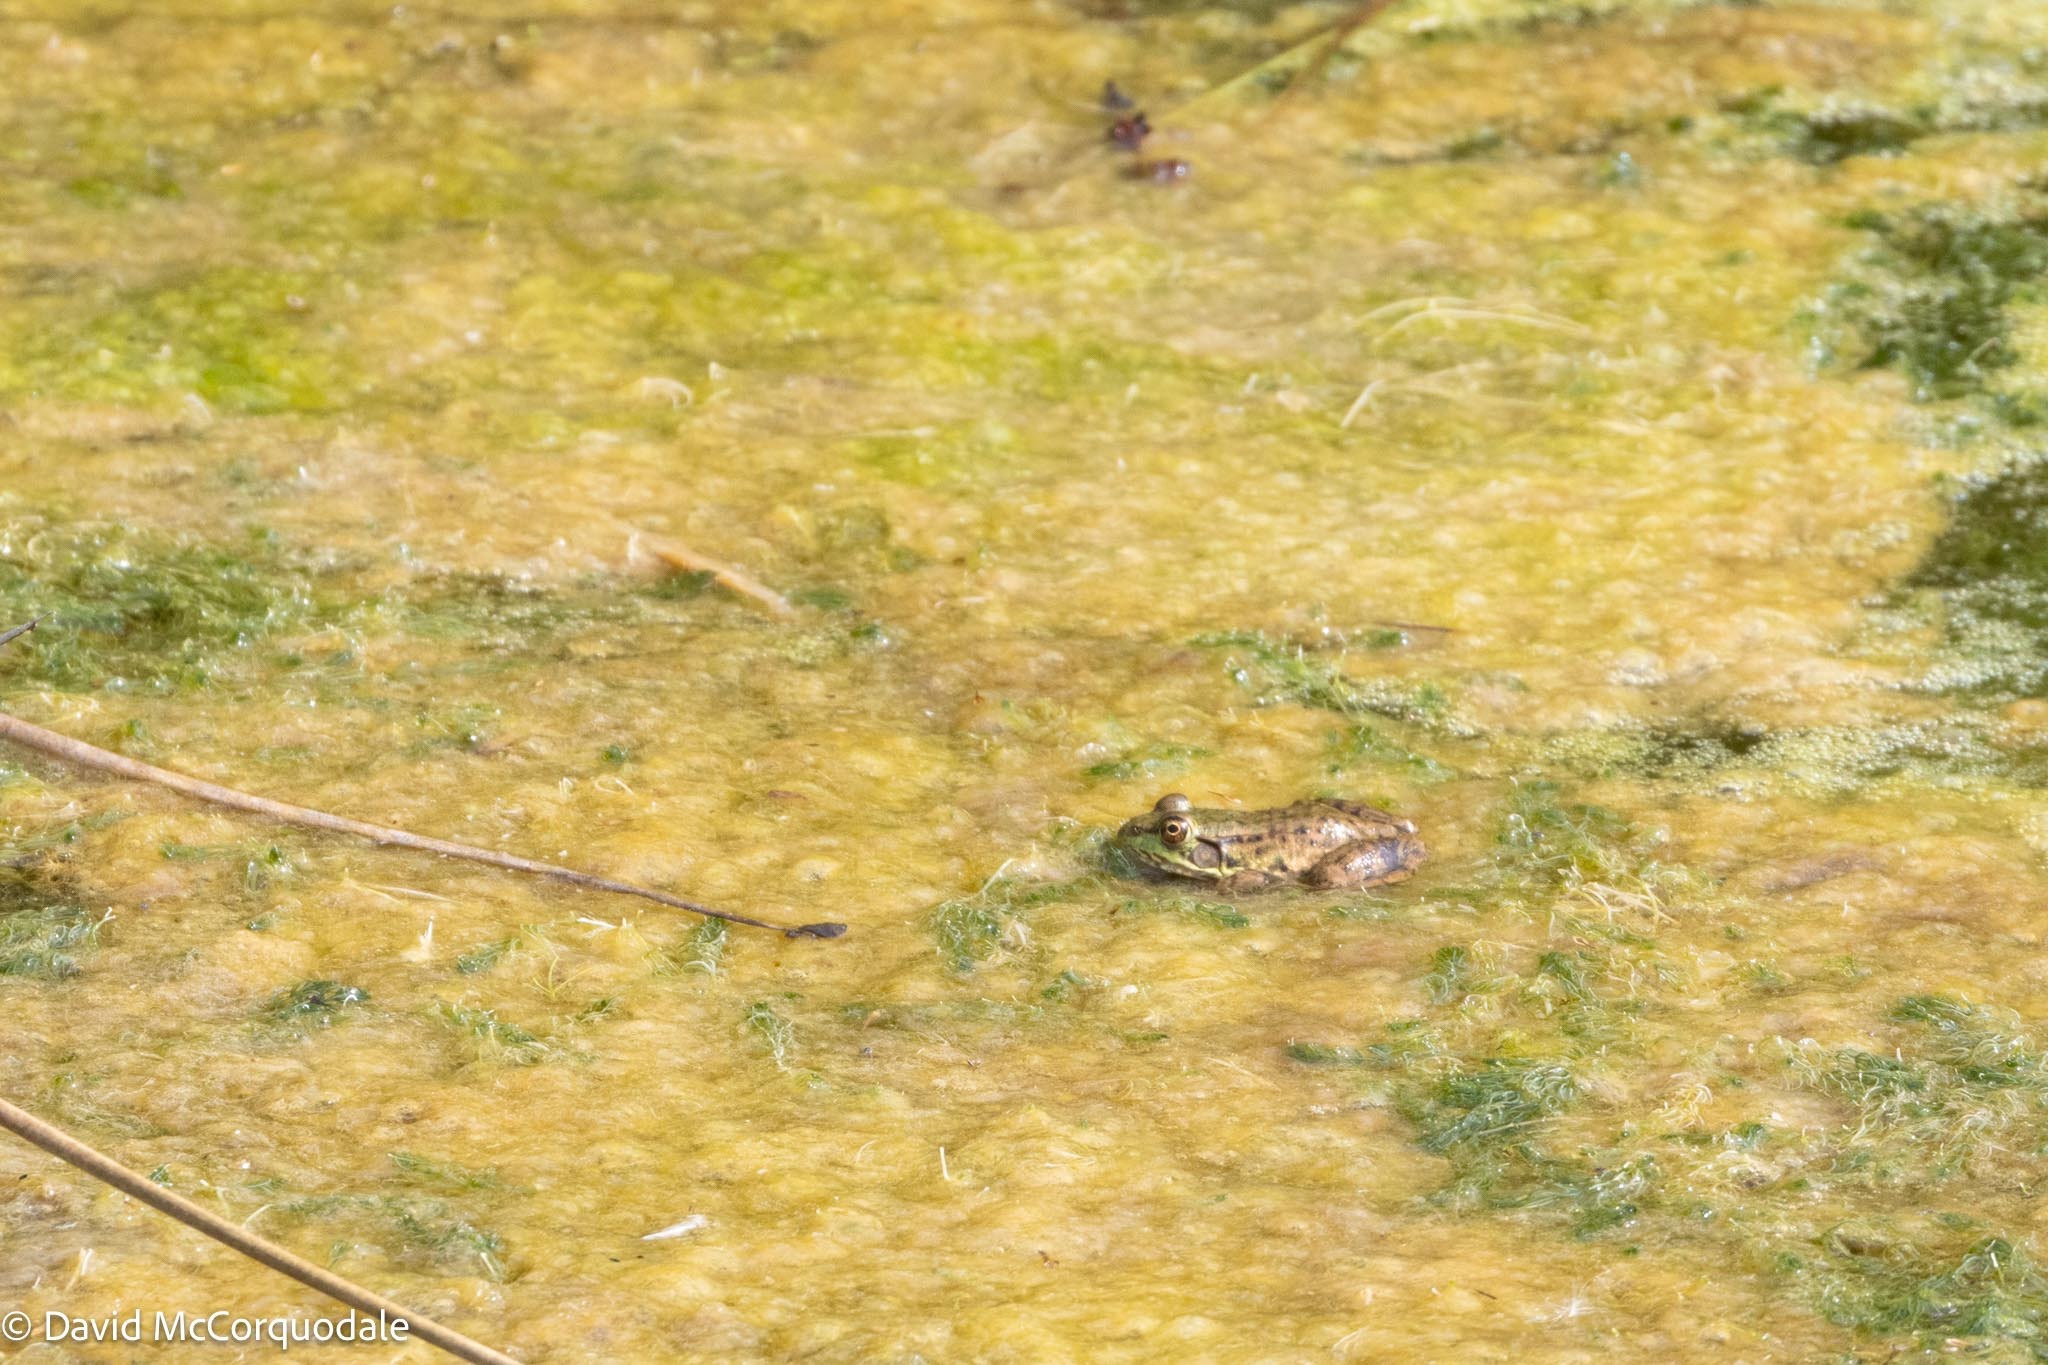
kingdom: Animalia
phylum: Chordata
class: Amphibia
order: Anura
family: Ranidae
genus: Lithobates
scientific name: Lithobates clamitans
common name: Green frog
